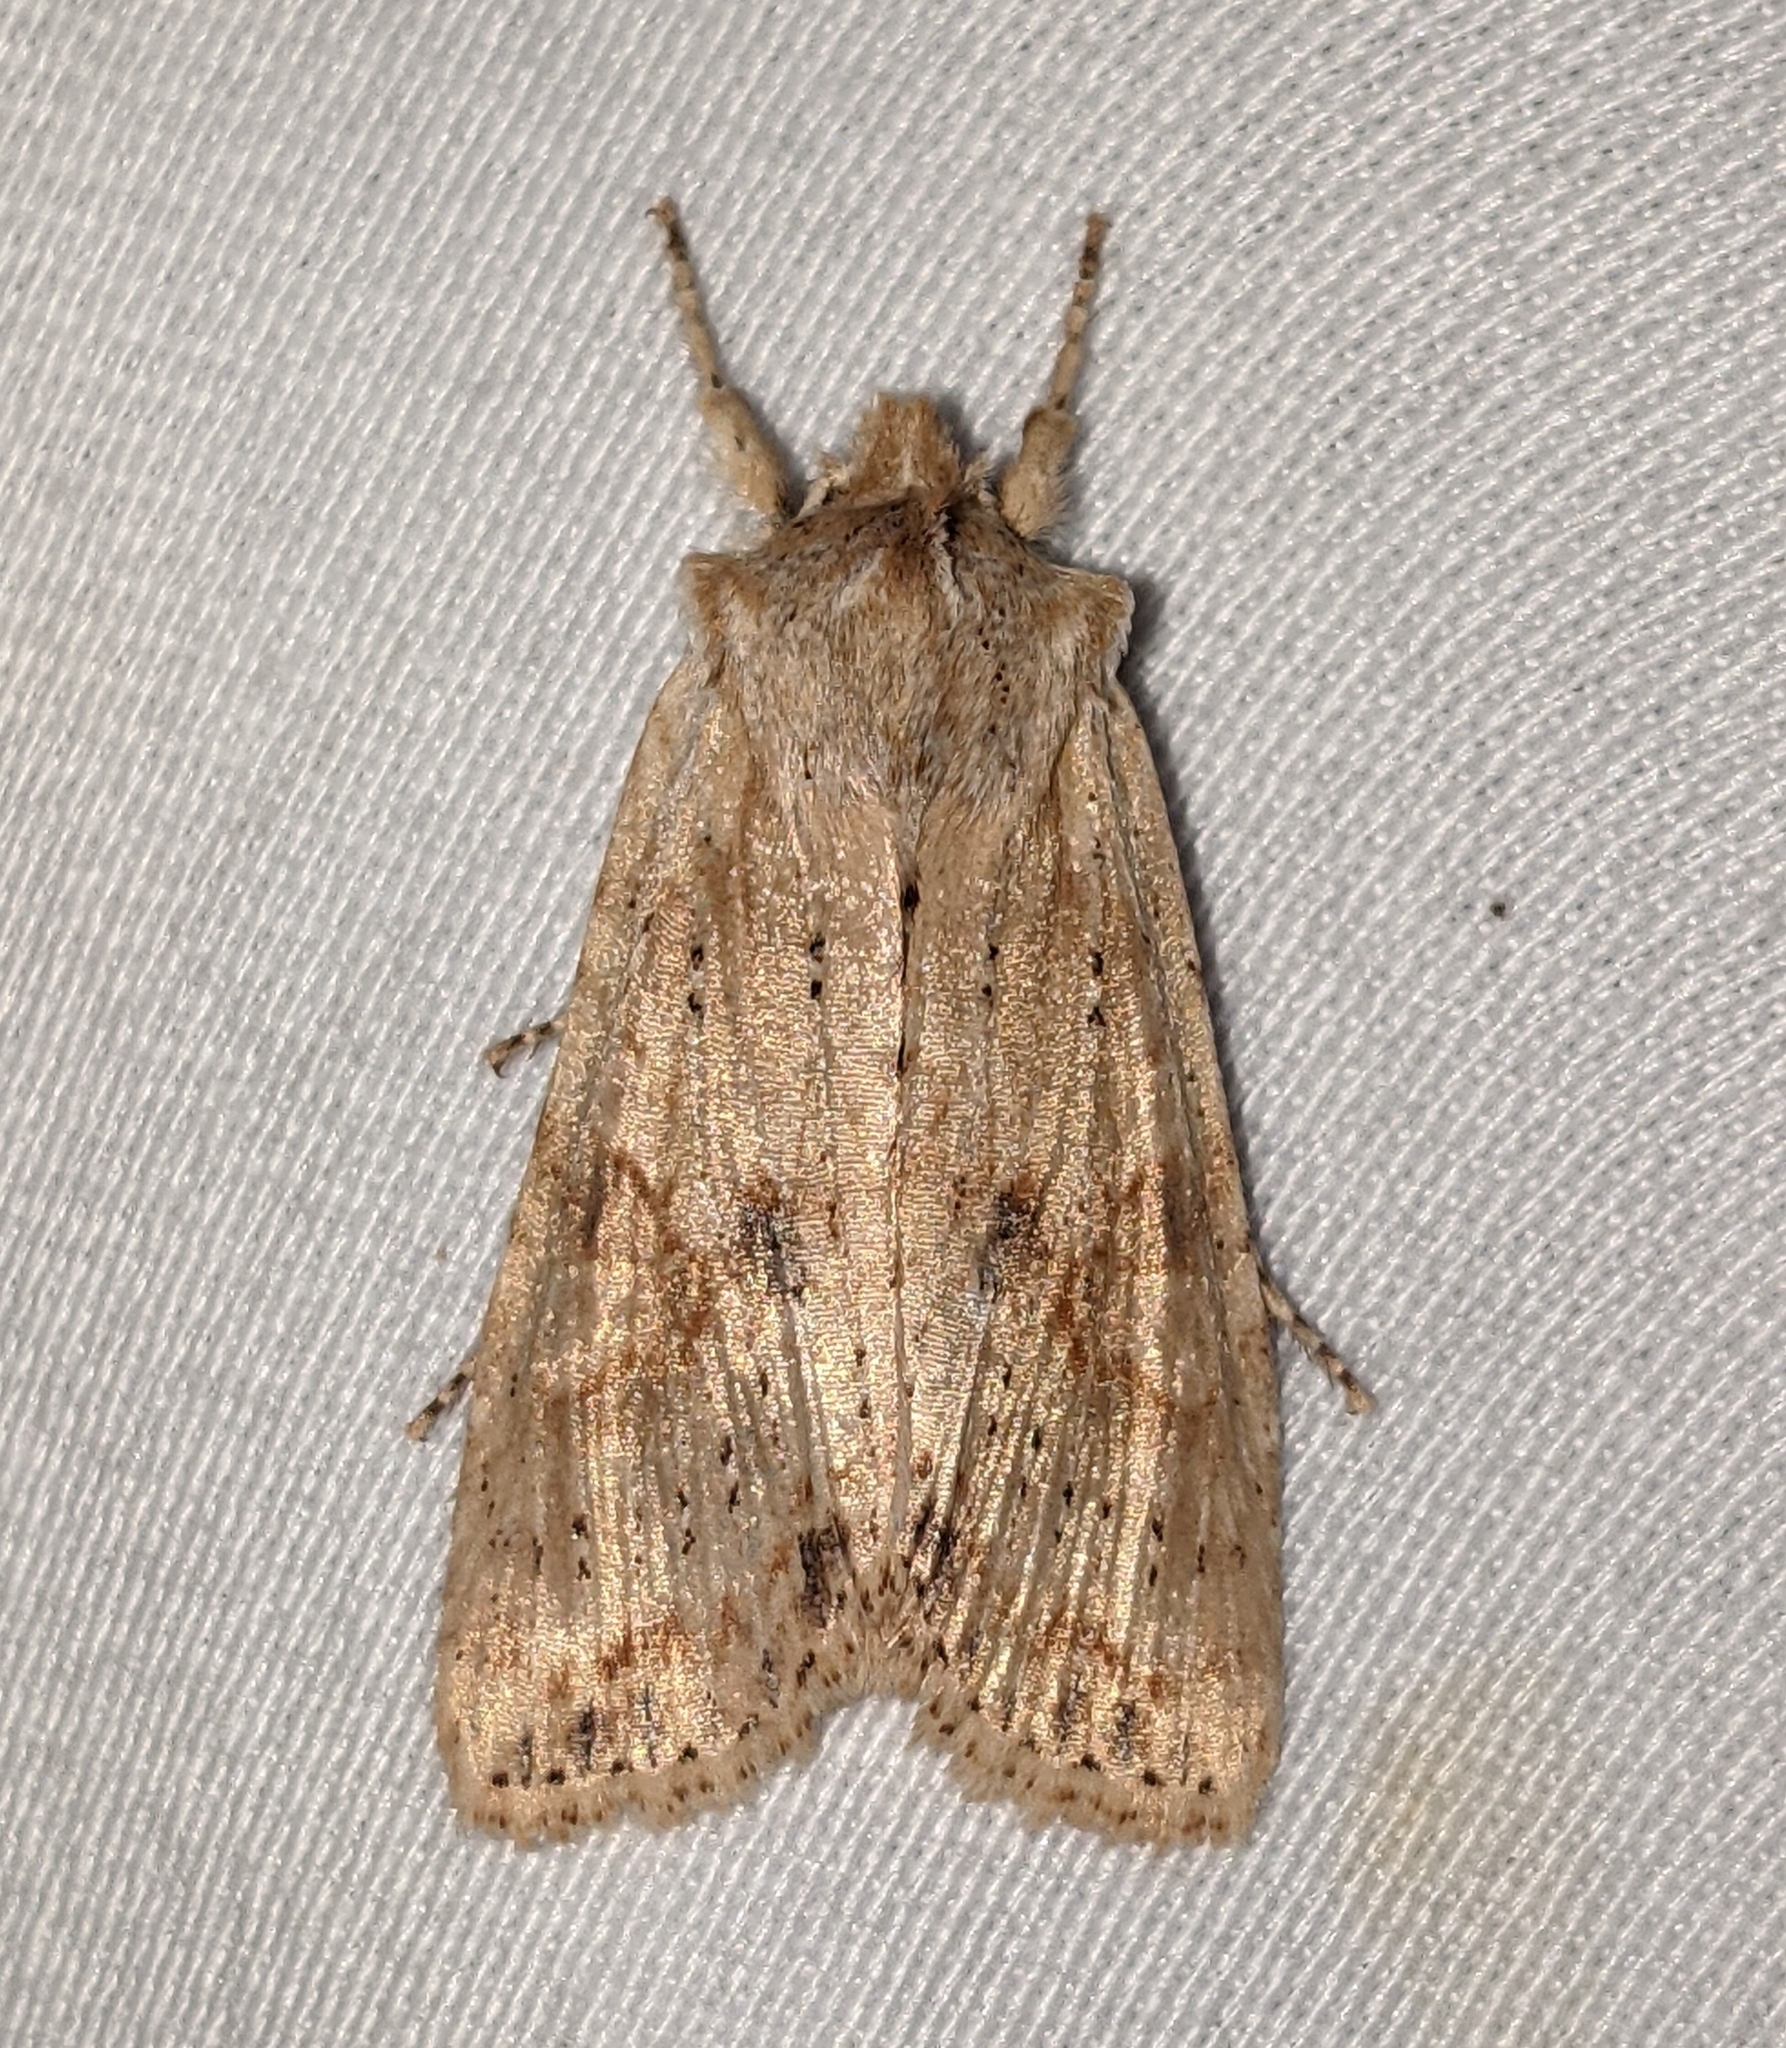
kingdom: Animalia
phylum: Arthropoda
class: Insecta
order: Lepidoptera
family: Noctuidae
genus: Lithophane
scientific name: Lithophane innominata
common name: Nameless pinion moth
